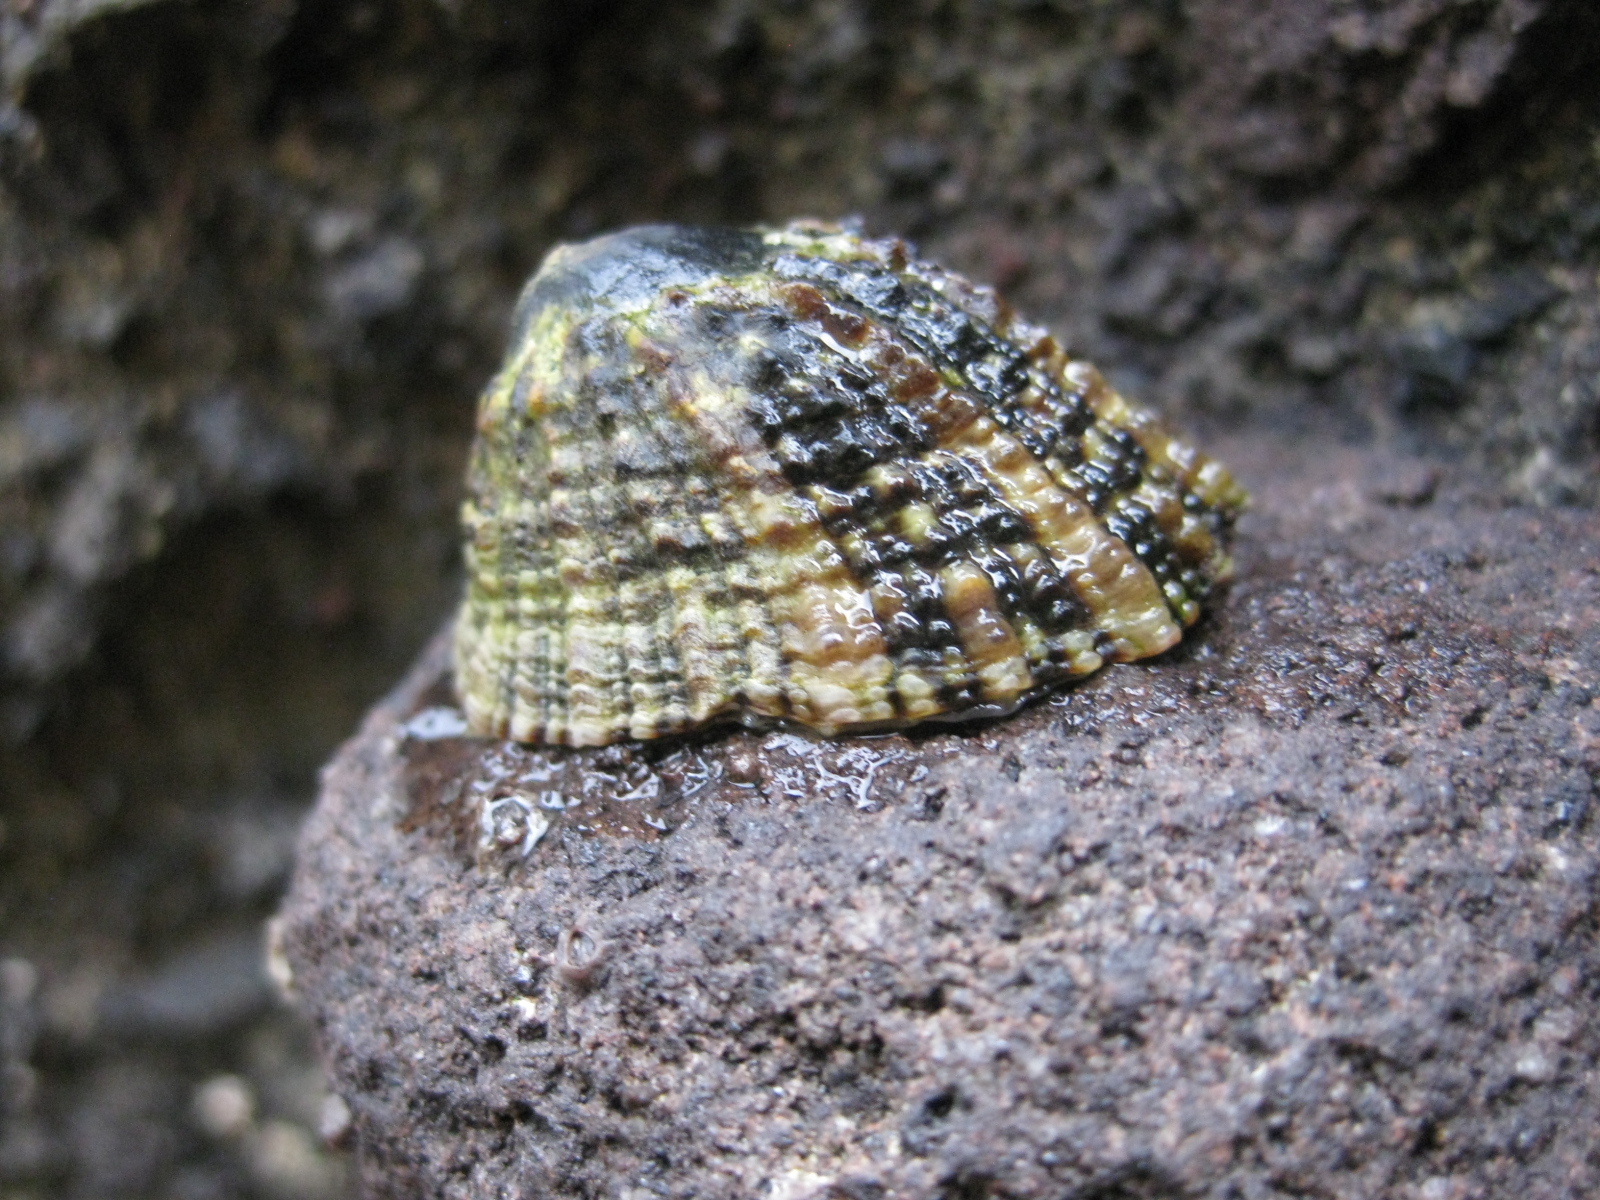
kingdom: Animalia
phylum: Mollusca
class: Gastropoda
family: Nacellidae
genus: Cellana
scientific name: Cellana ornata
